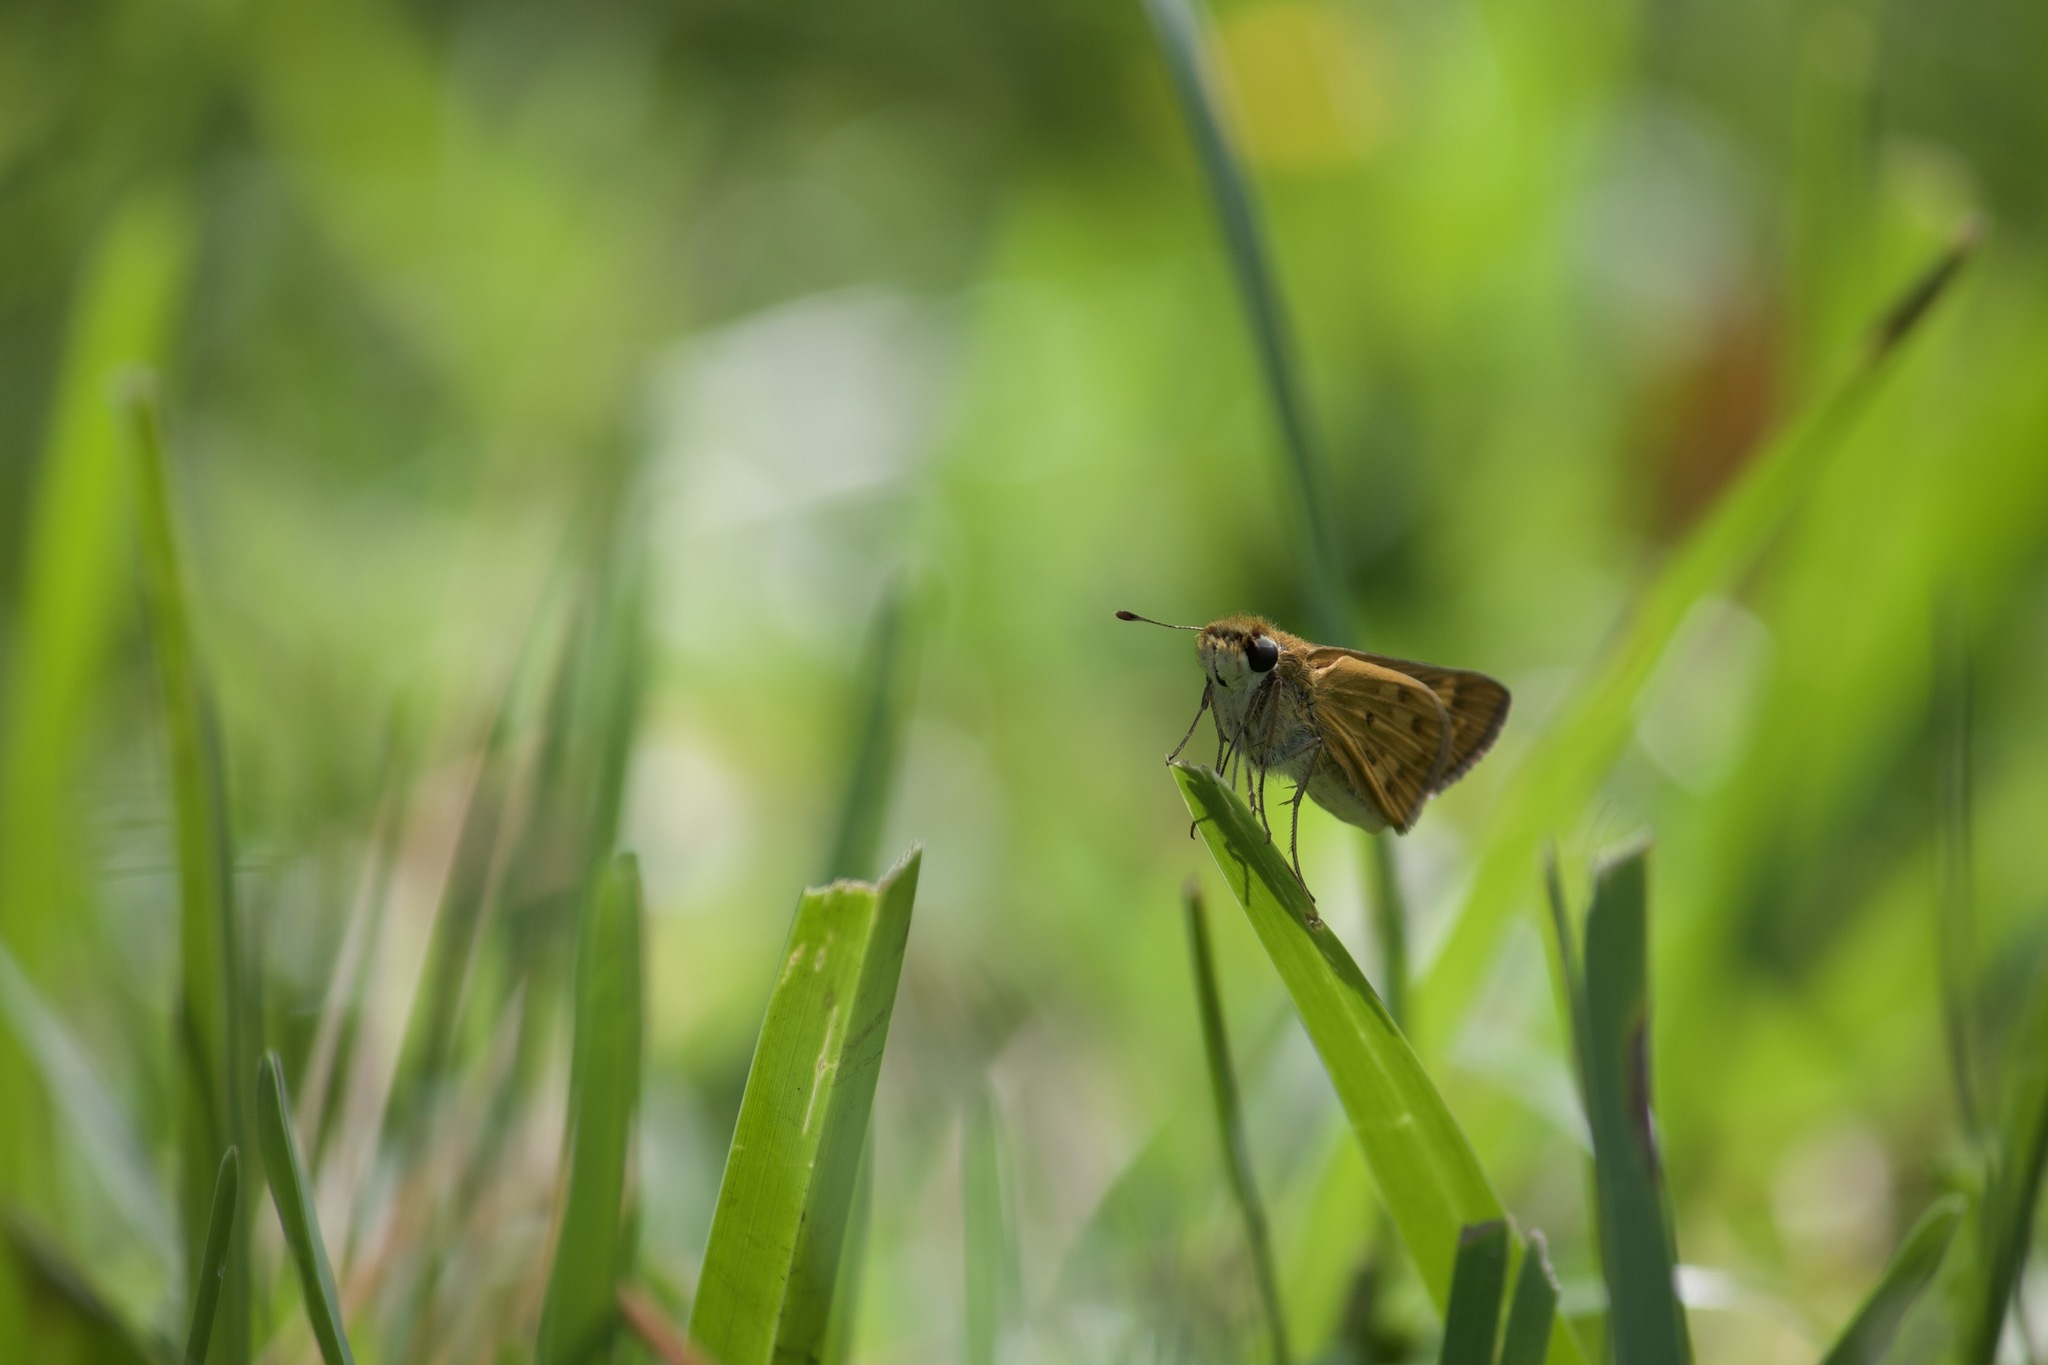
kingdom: Animalia
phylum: Arthropoda
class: Insecta
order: Lepidoptera
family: Hesperiidae
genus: Hylephila
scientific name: Hylephila phyleus
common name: Fiery skipper
